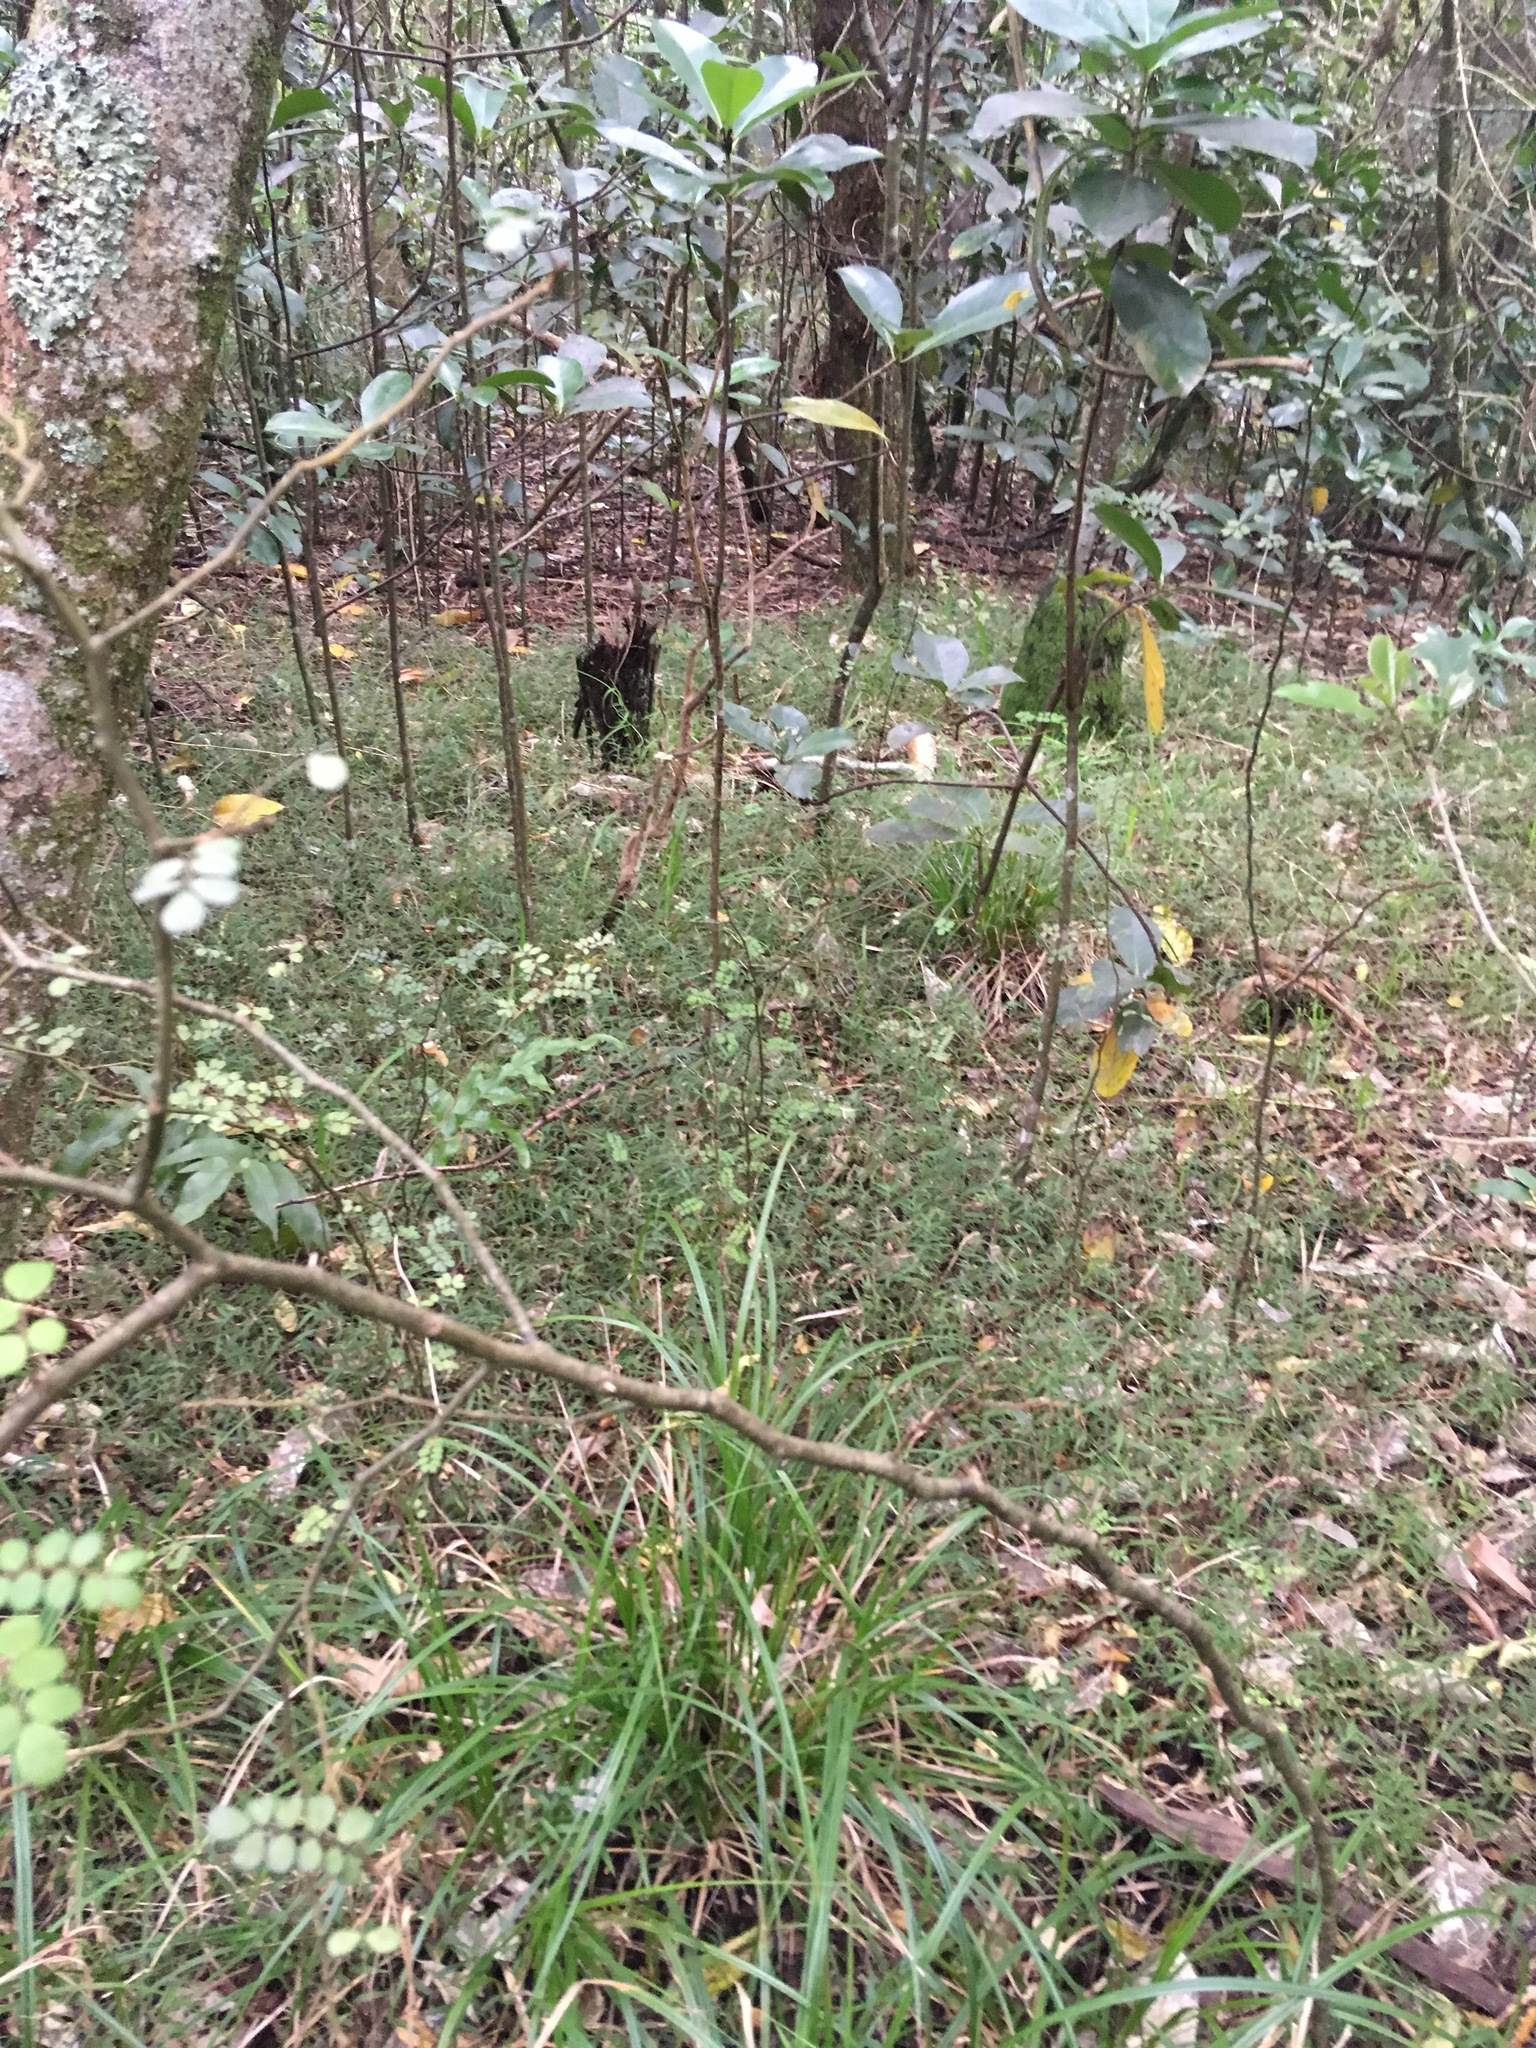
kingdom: Plantae
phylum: Tracheophyta
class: Magnoliopsida
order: Cucurbitales
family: Corynocarpaceae
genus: Corynocarpus
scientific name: Corynocarpus laevigatus
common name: New zealand laurel
